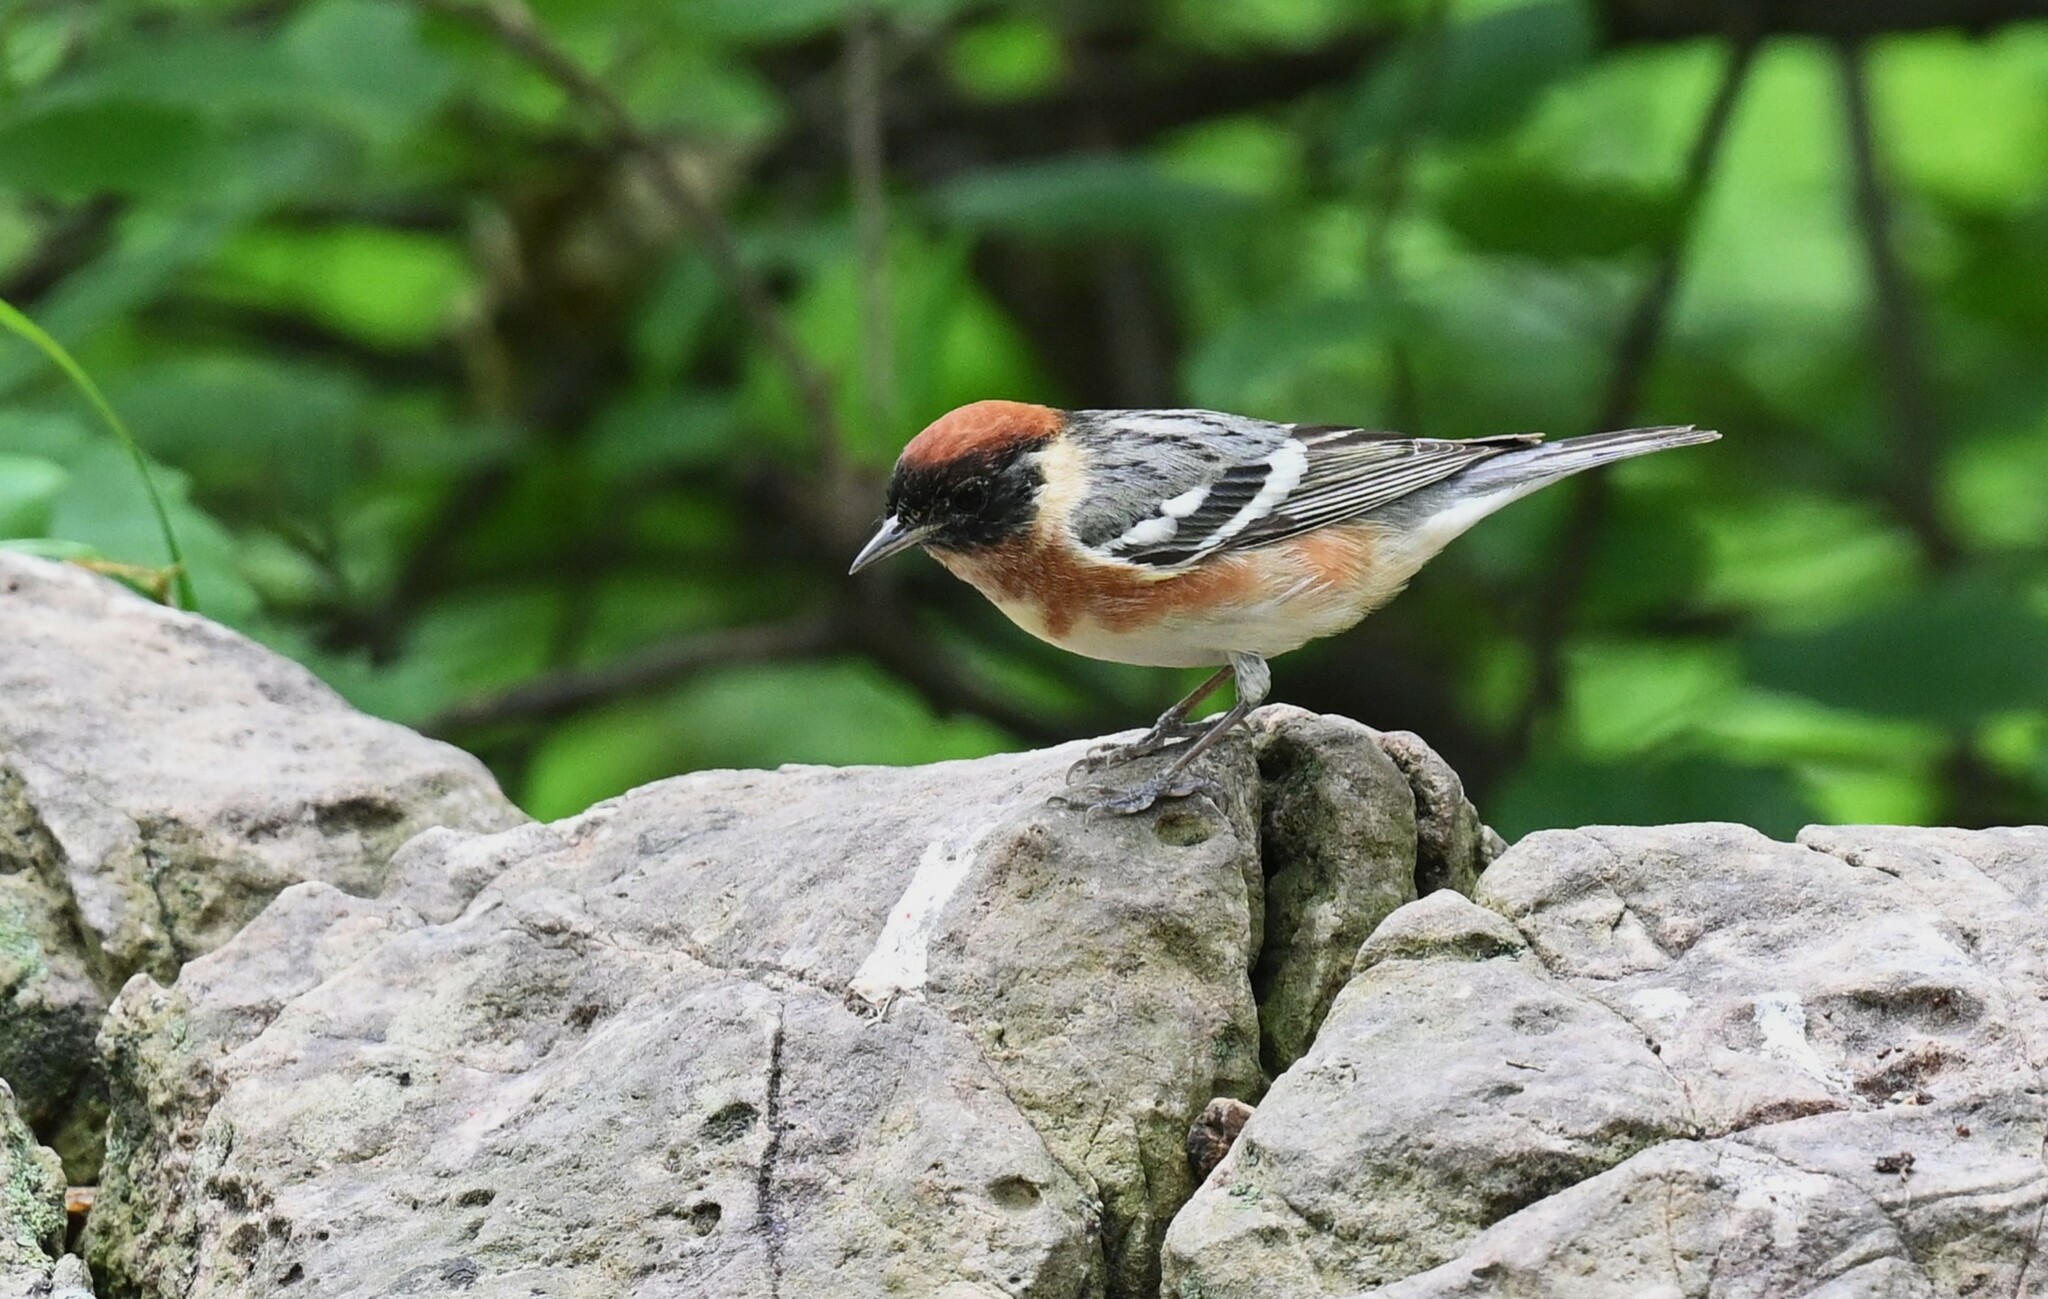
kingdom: Animalia
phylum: Chordata
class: Aves
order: Passeriformes
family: Parulidae
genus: Setophaga
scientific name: Setophaga castanea
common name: Bay-breasted warbler
